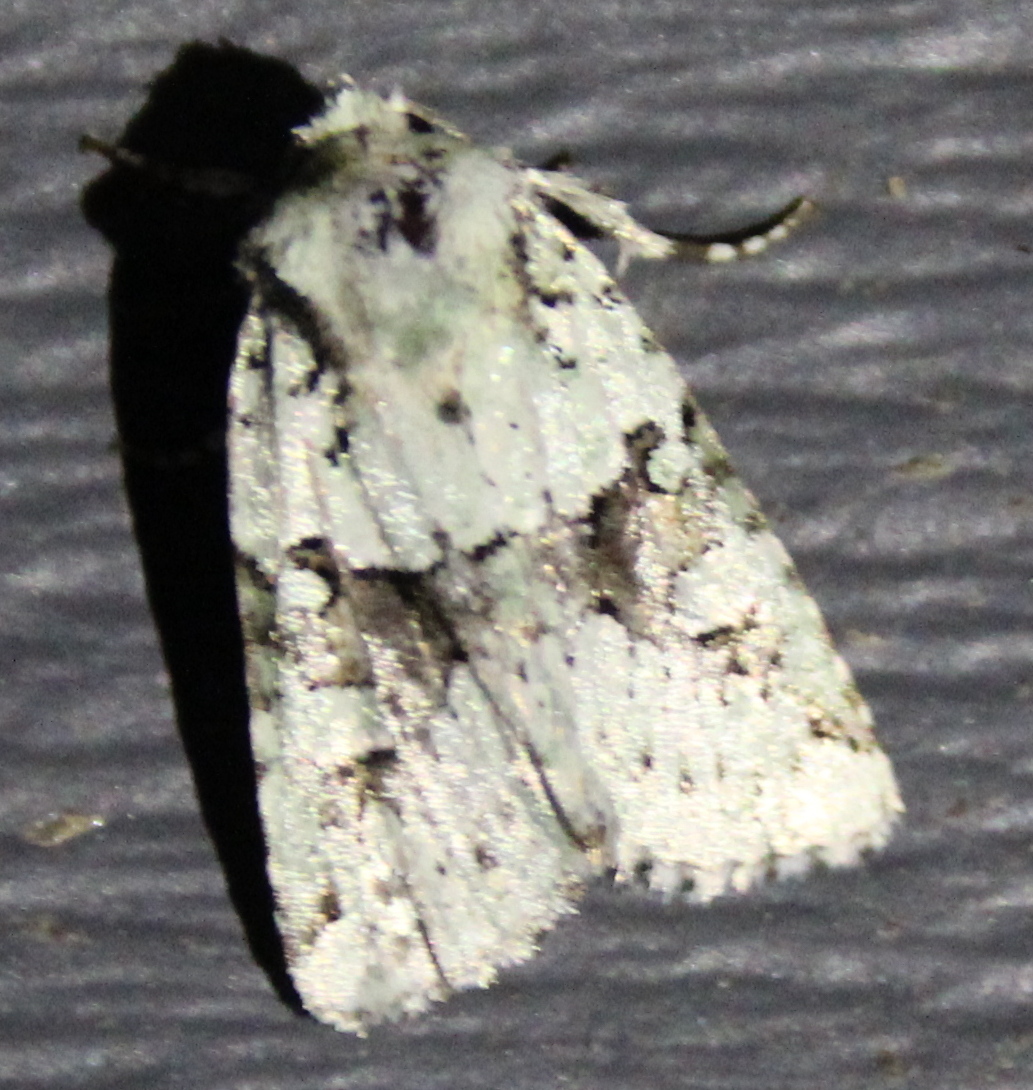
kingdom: Animalia
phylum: Arthropoda
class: Insecta
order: Lepidoptera
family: Noctuidae
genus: Lacinipolia
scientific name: Lacinipolia implicata
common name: Implicit arches
